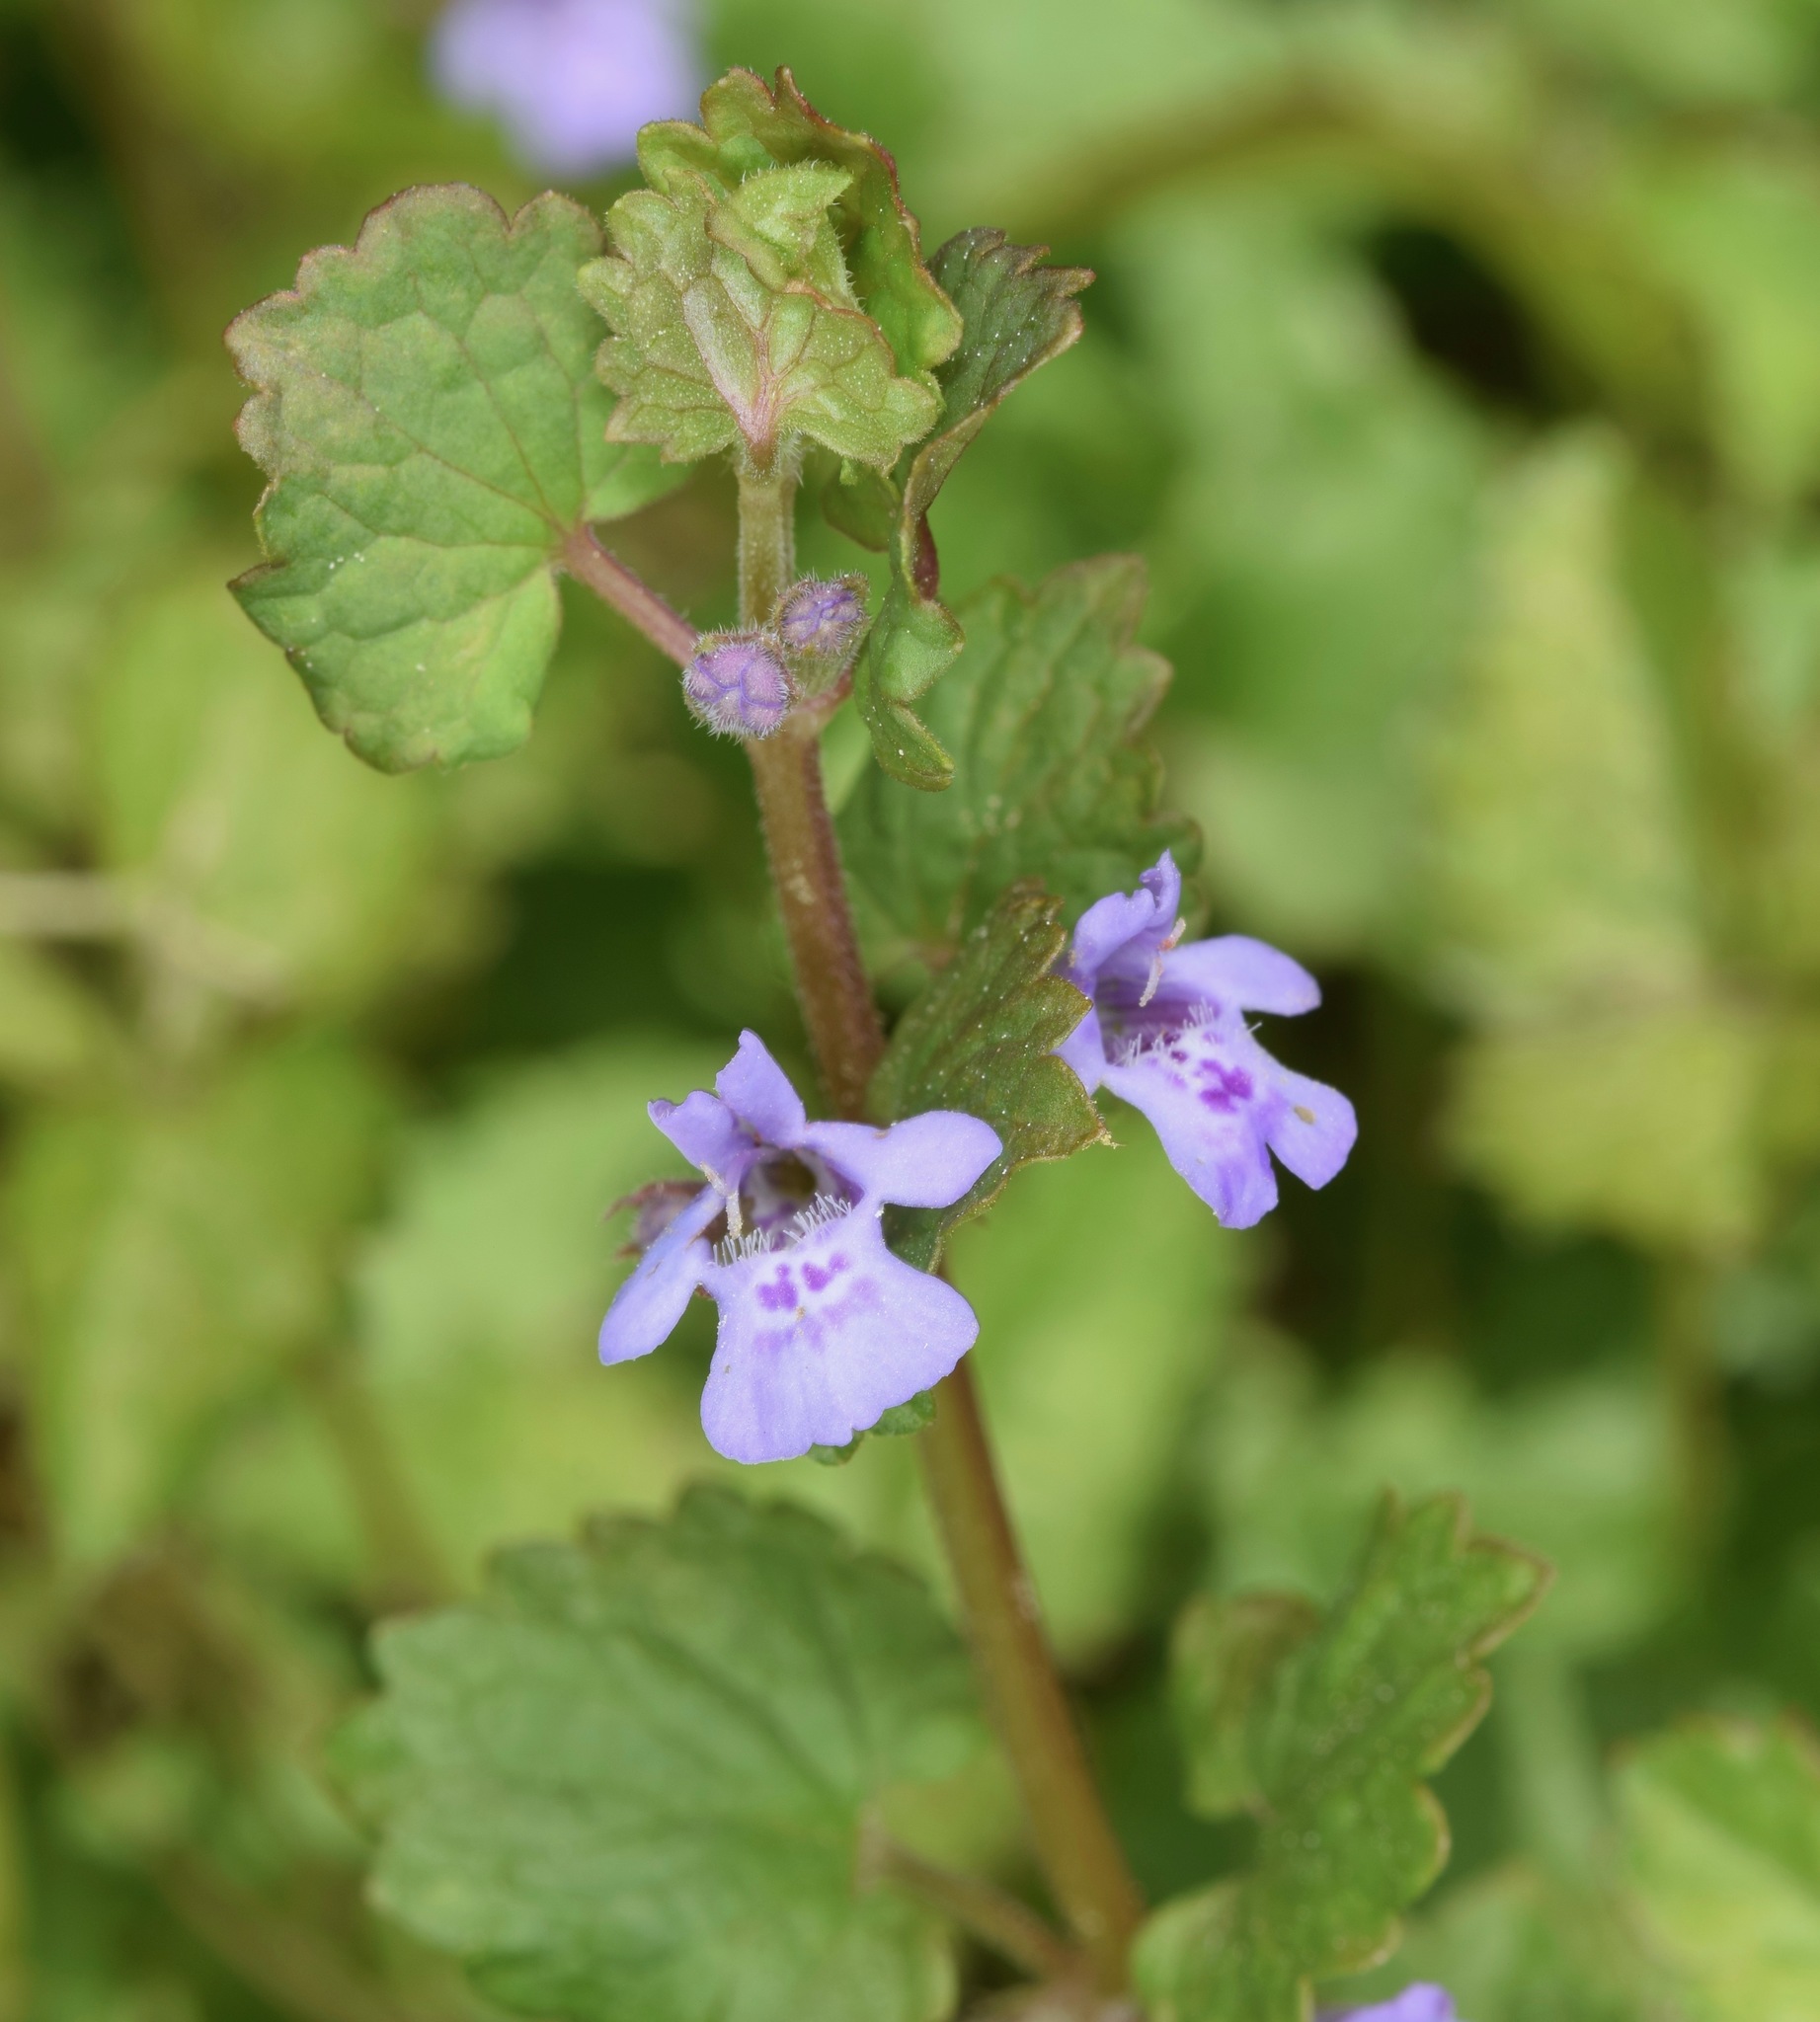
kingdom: Plantae
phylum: Tracheophyta
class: Magnoliopsida
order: Lamiales
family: Lamiaceae
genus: Glechoma
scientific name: Glechoma hederacea
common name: Ground ivy
